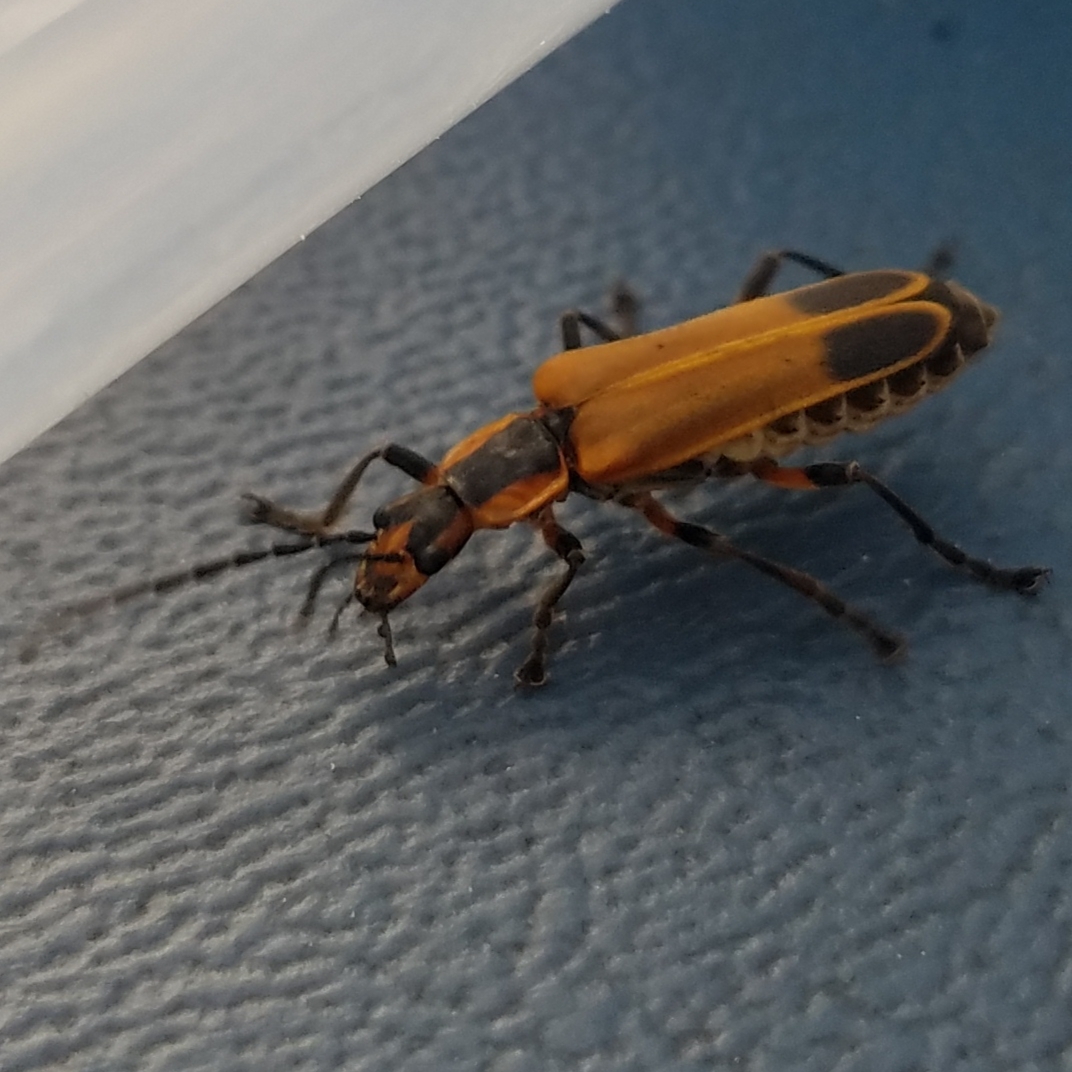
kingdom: Animalia
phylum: Arthropoda
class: Insecta
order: Coleoptera
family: Cantharidae
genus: Chauliognathus
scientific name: Chauliognathus marginatus
